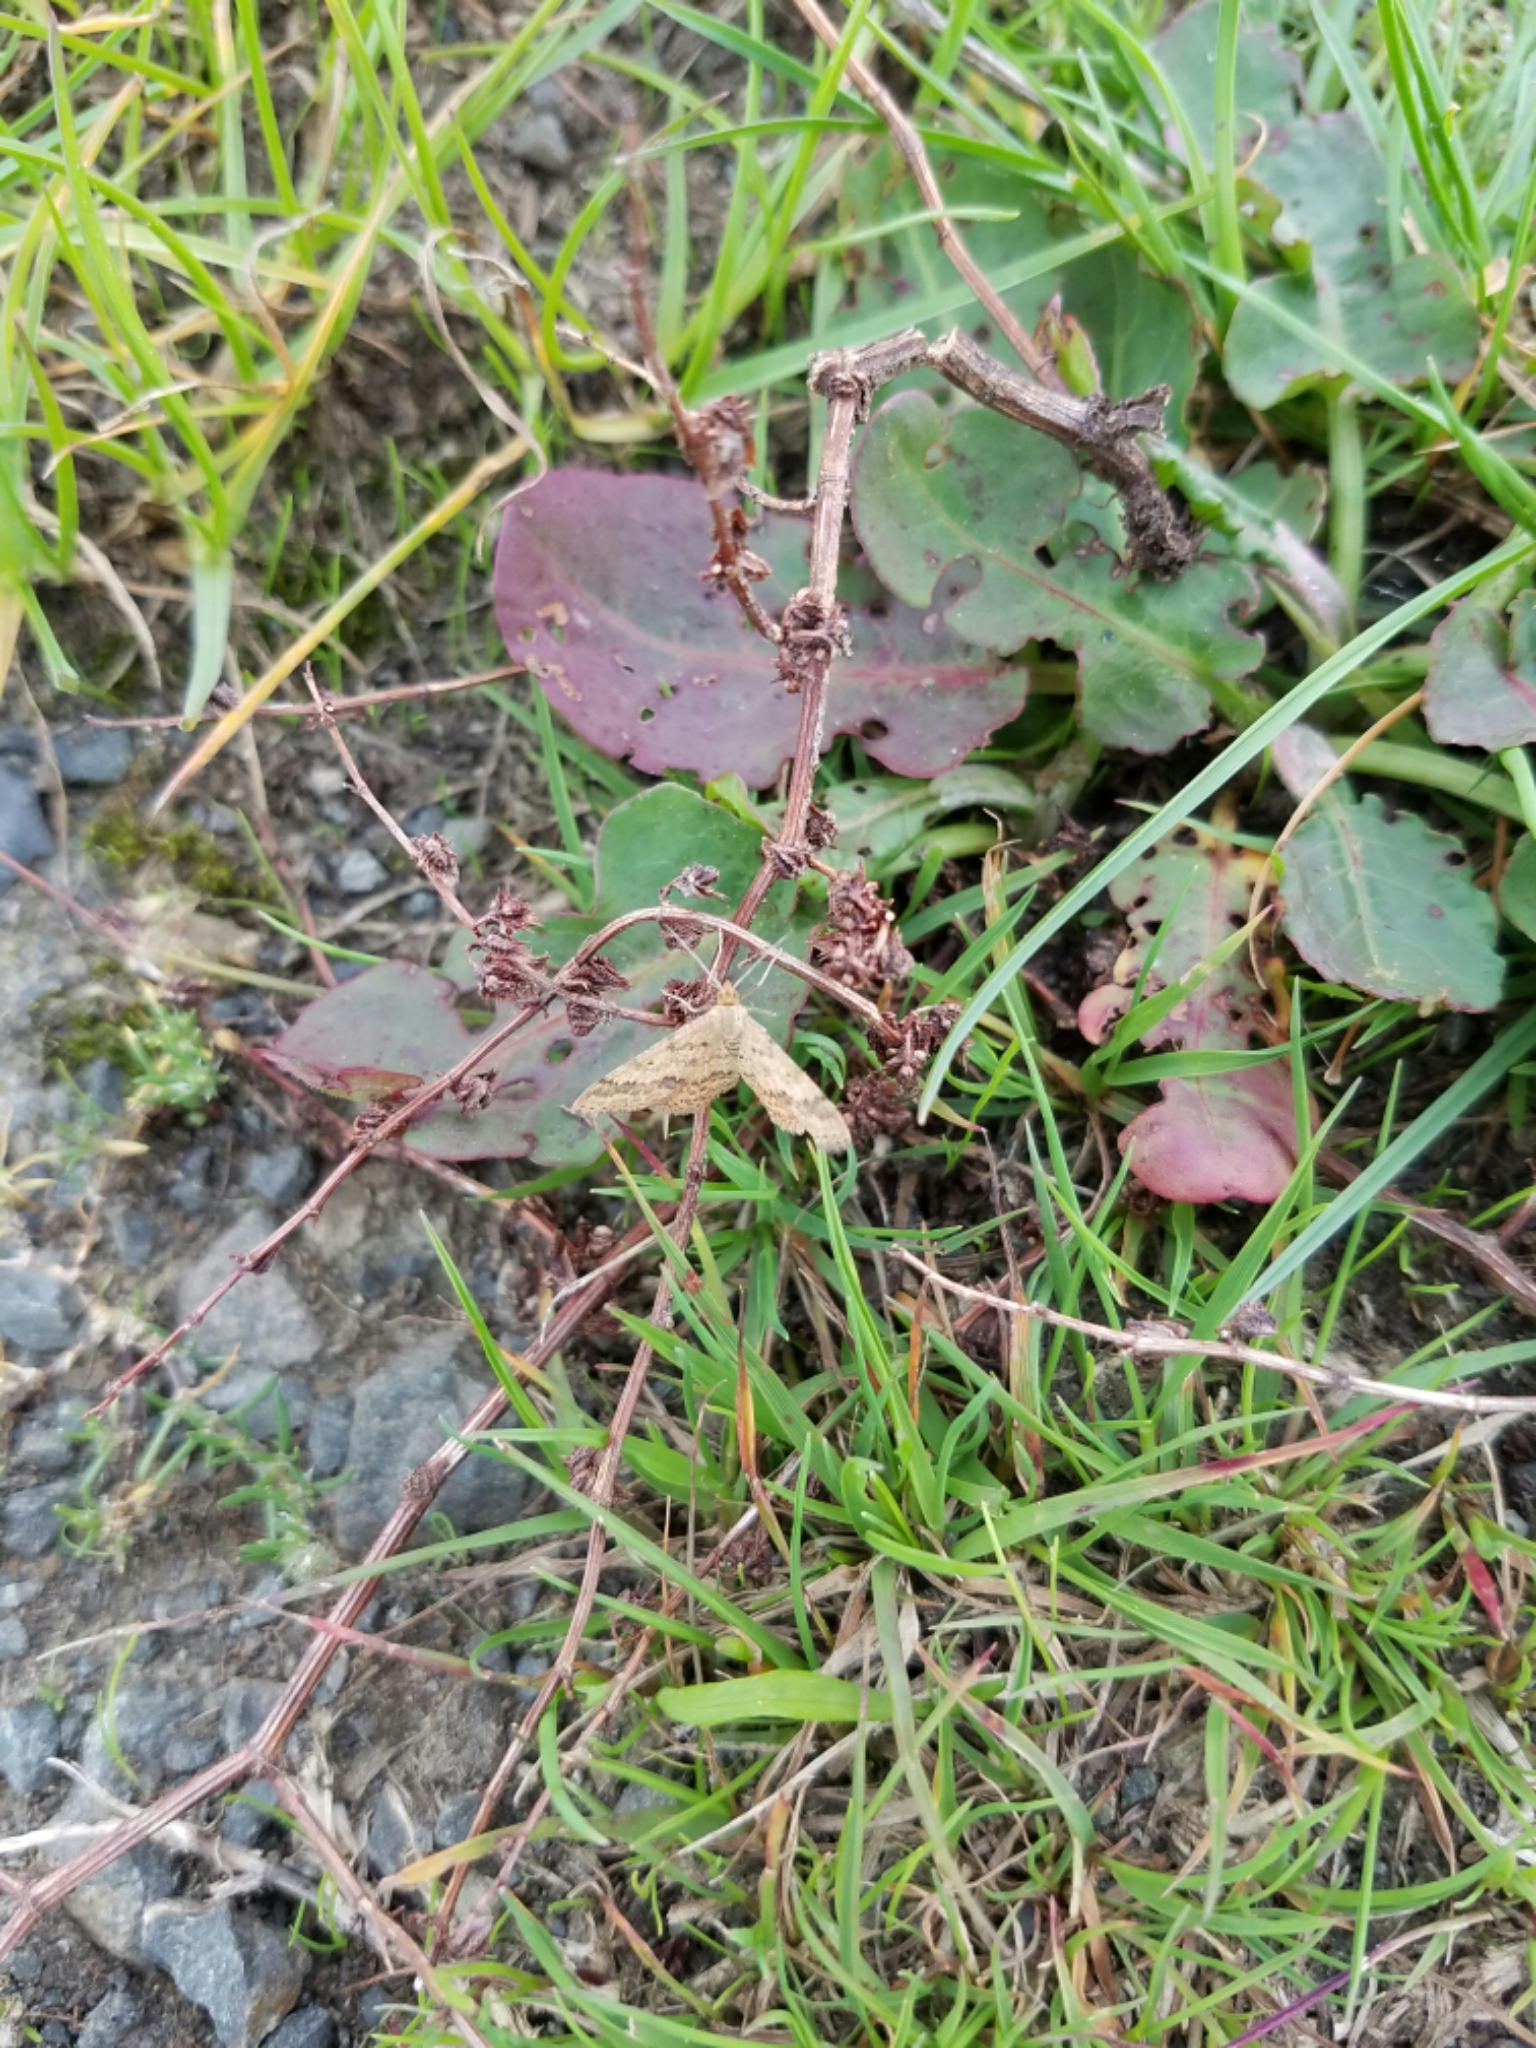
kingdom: Animalia
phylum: Arthropoda
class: Insecta
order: Lepidoptera
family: Geometridae
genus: Scopula
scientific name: Scopula rubraria
